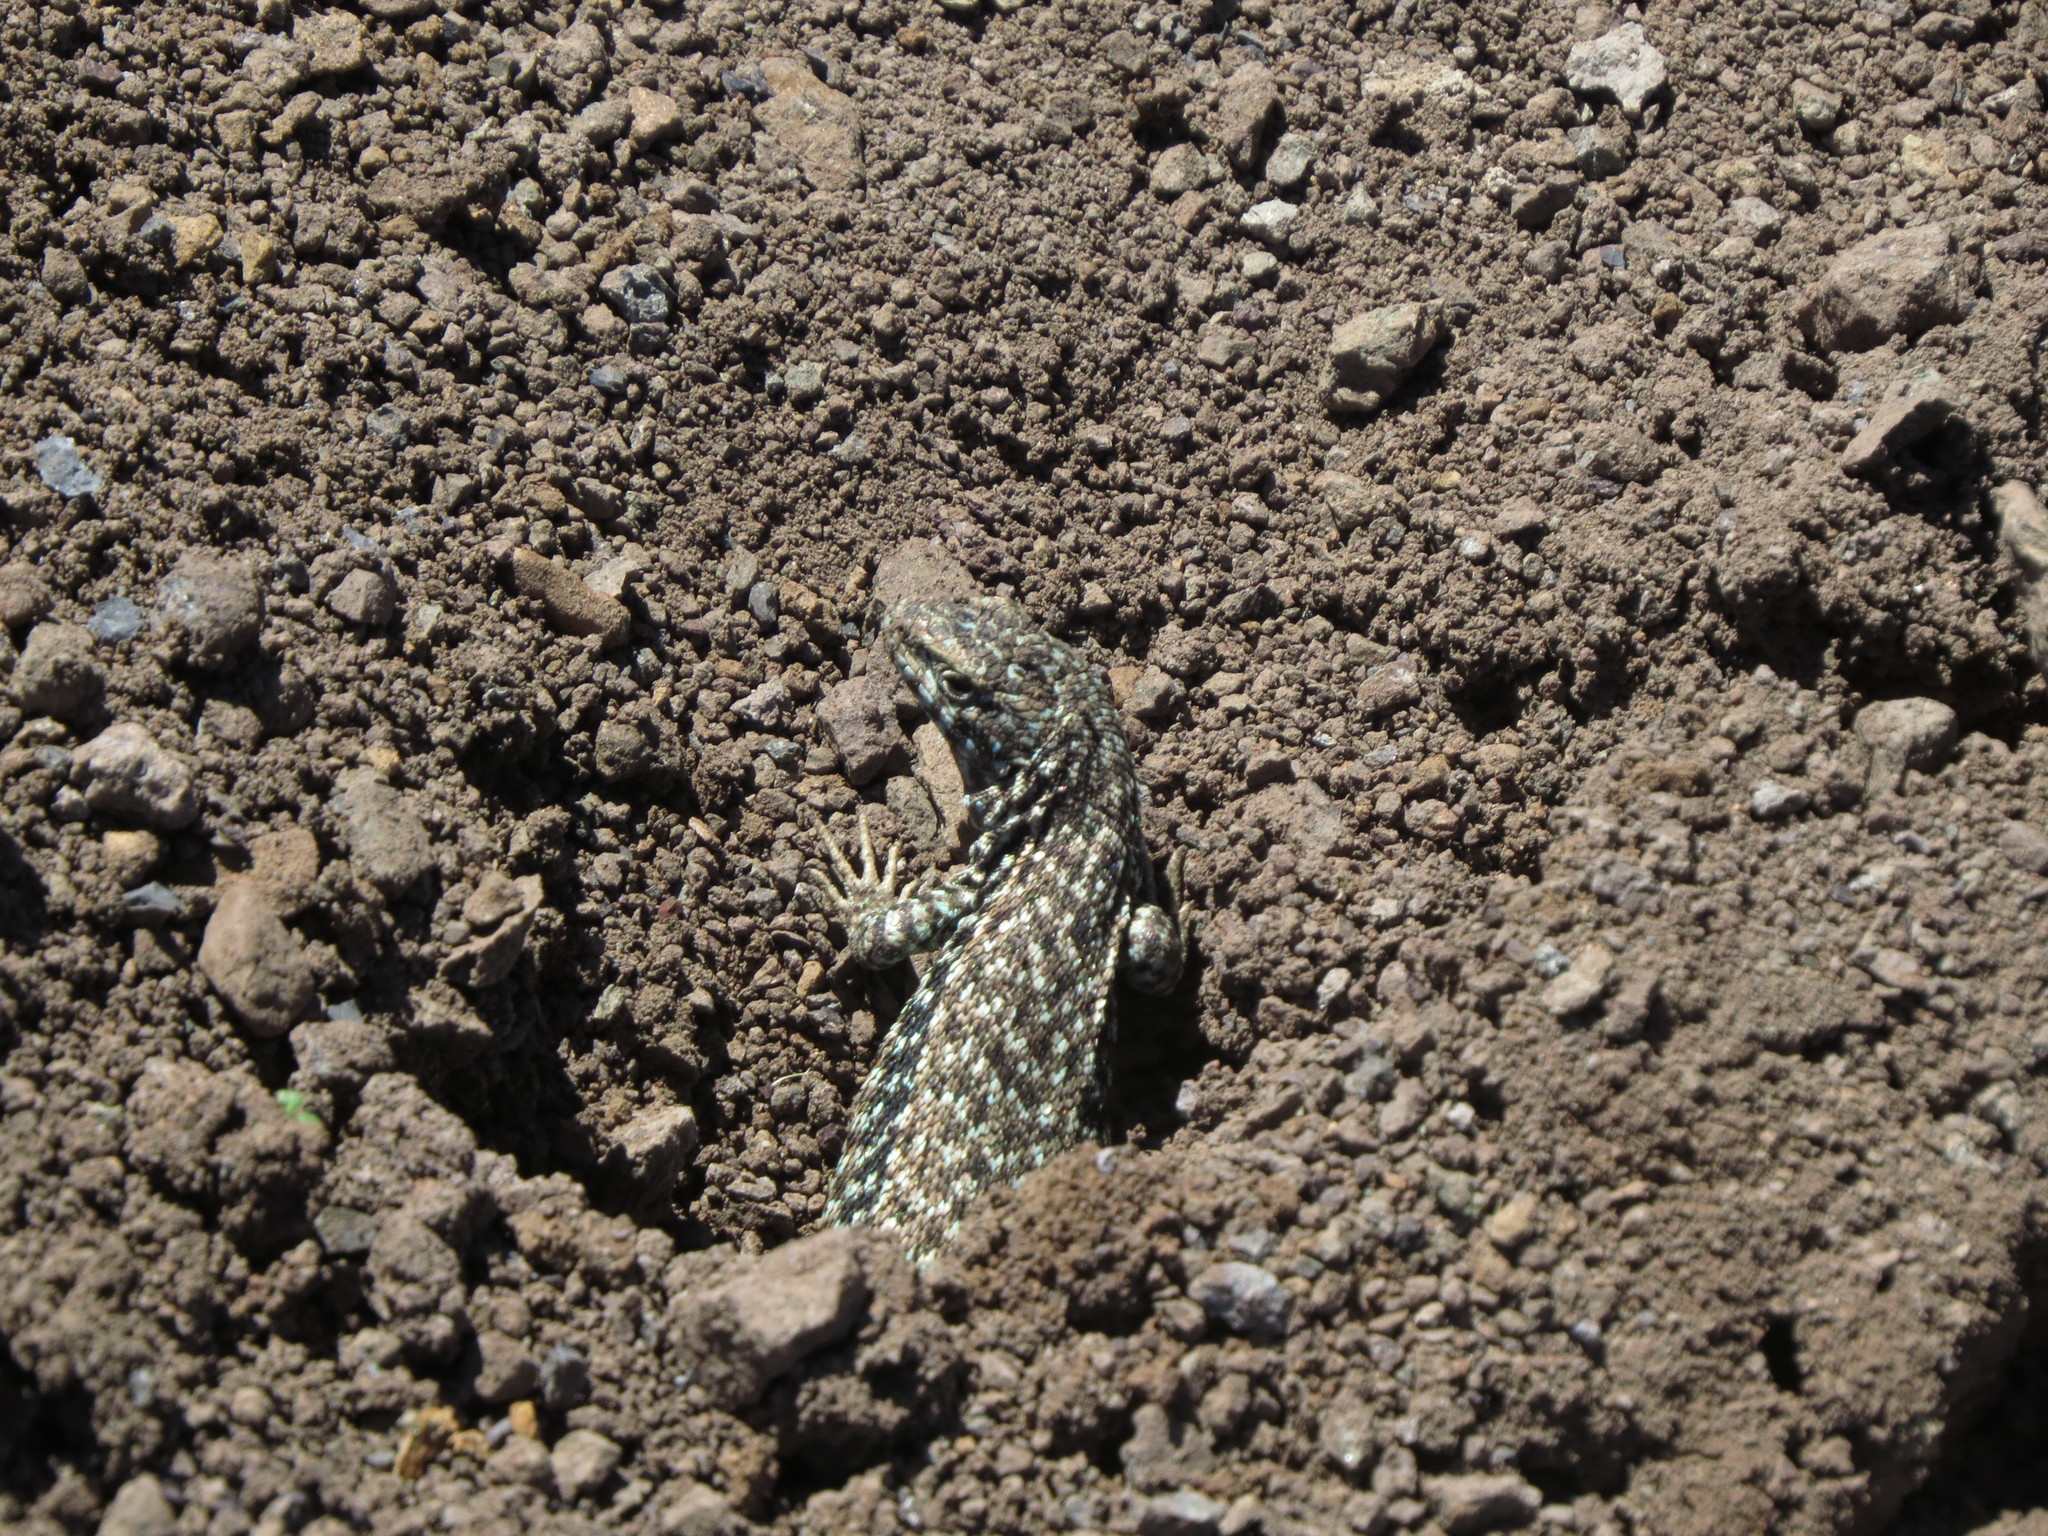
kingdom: Animalia
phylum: Chordata
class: Squamata
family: Liolaemidae
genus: Liolaemus
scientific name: Liolaemus nigroviridis
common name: Black-green tree iguana
